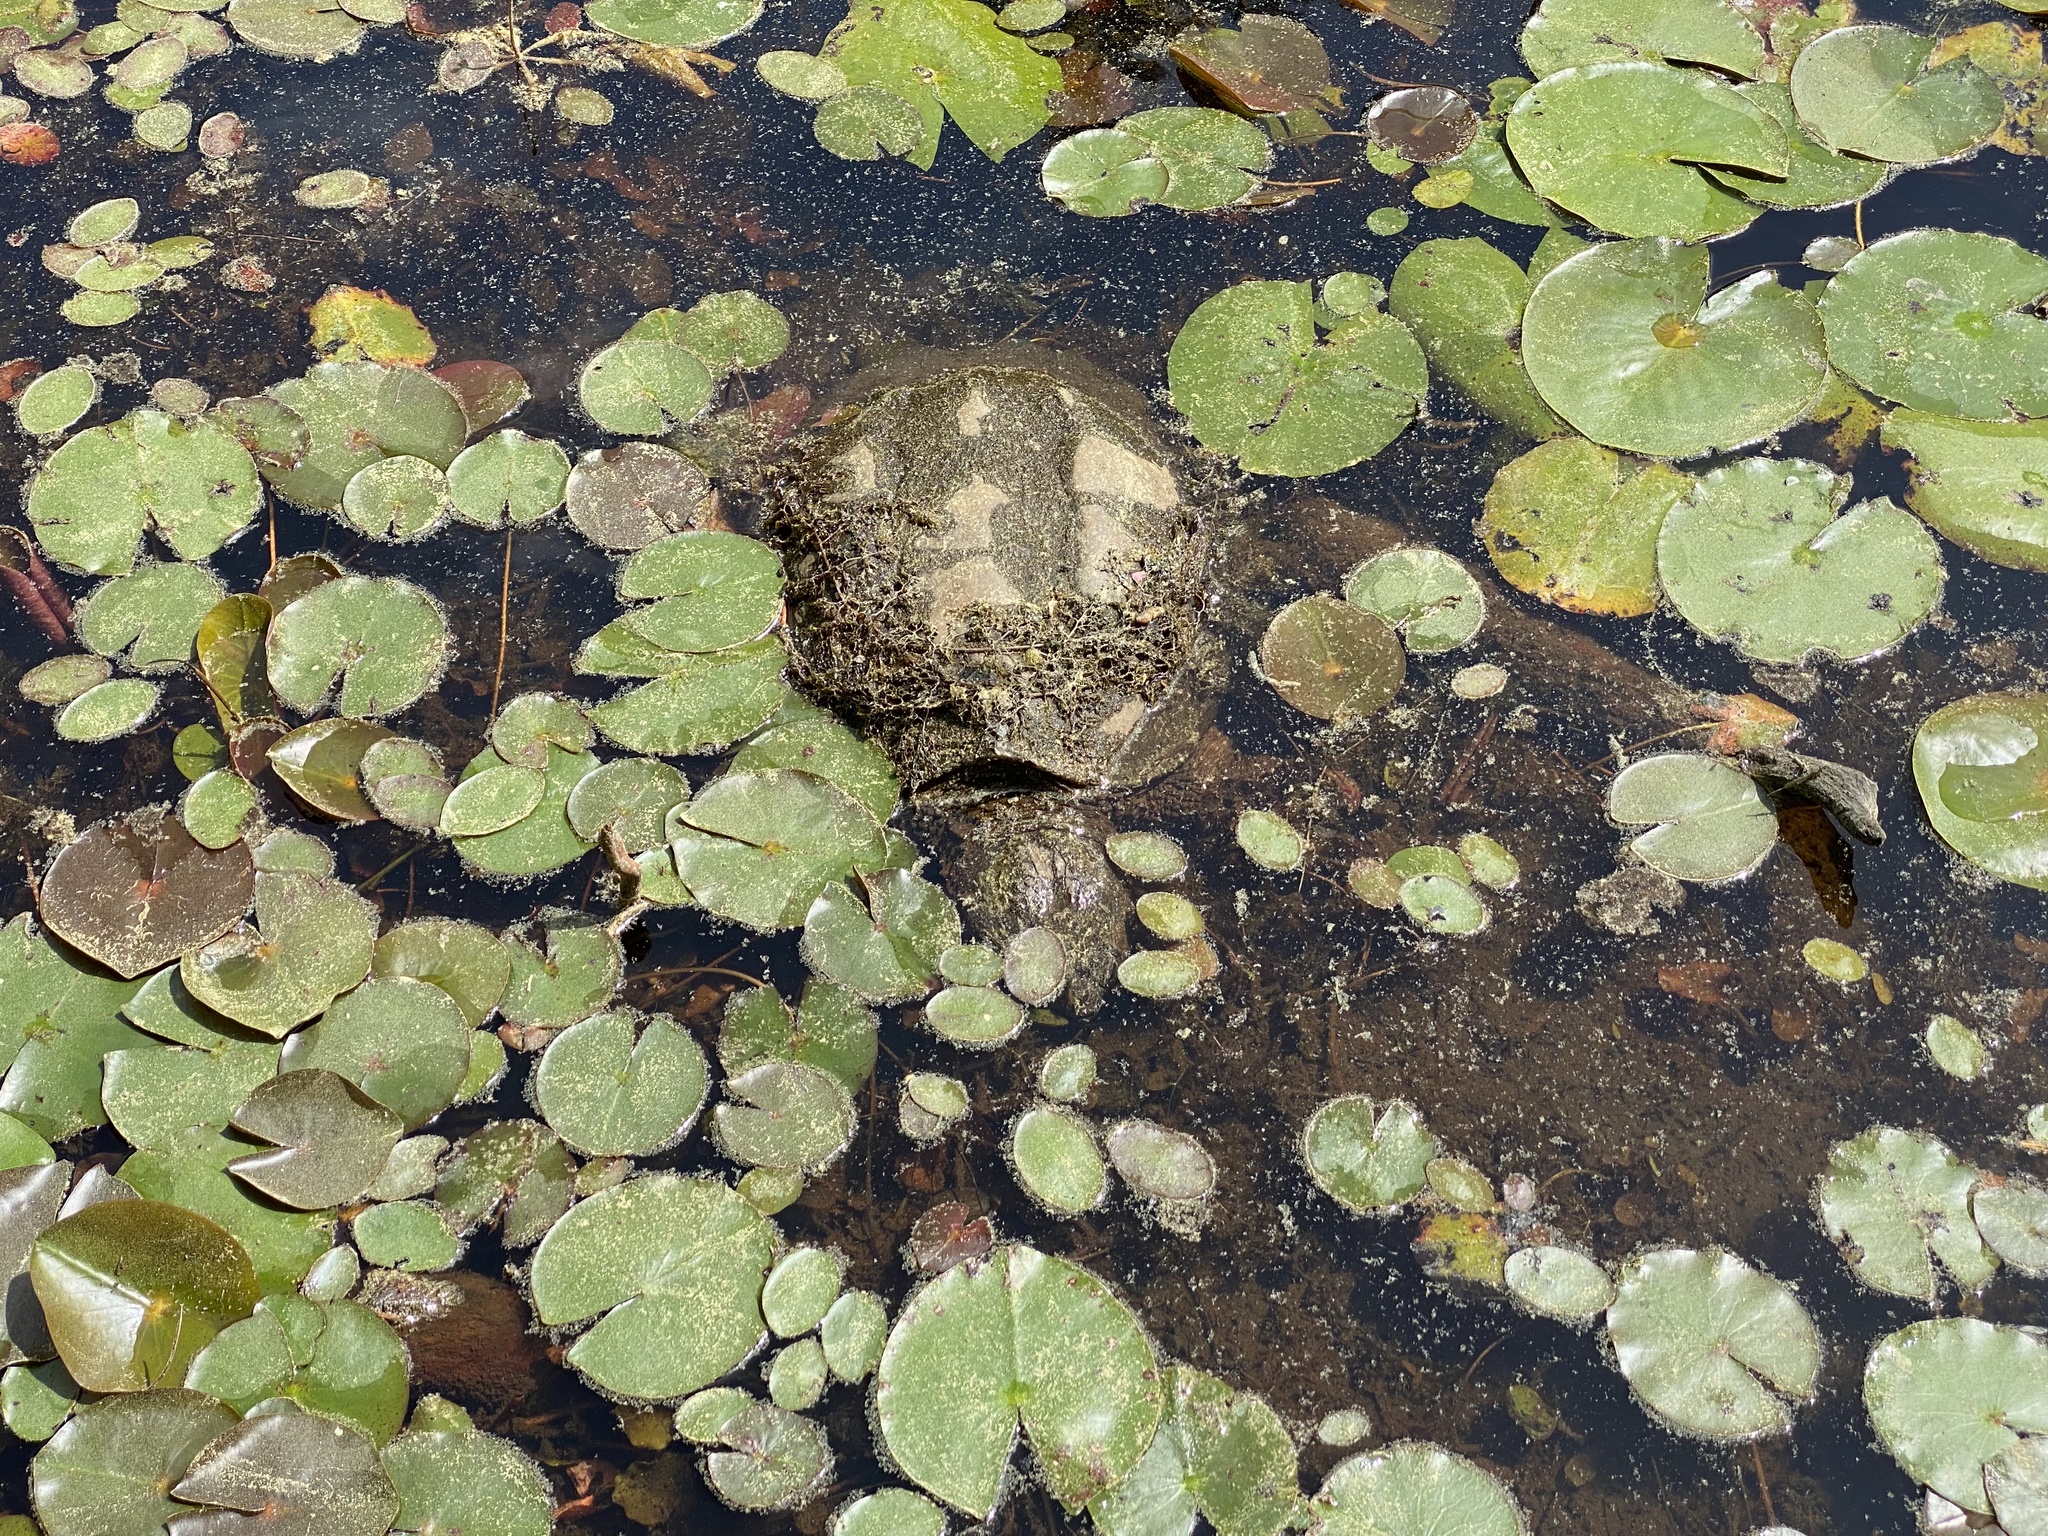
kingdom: Animalia
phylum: Chordata
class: Testudines
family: Chelydridae
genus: Chelydra
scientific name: Chelydra serpentina
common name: Common snapping turtle
